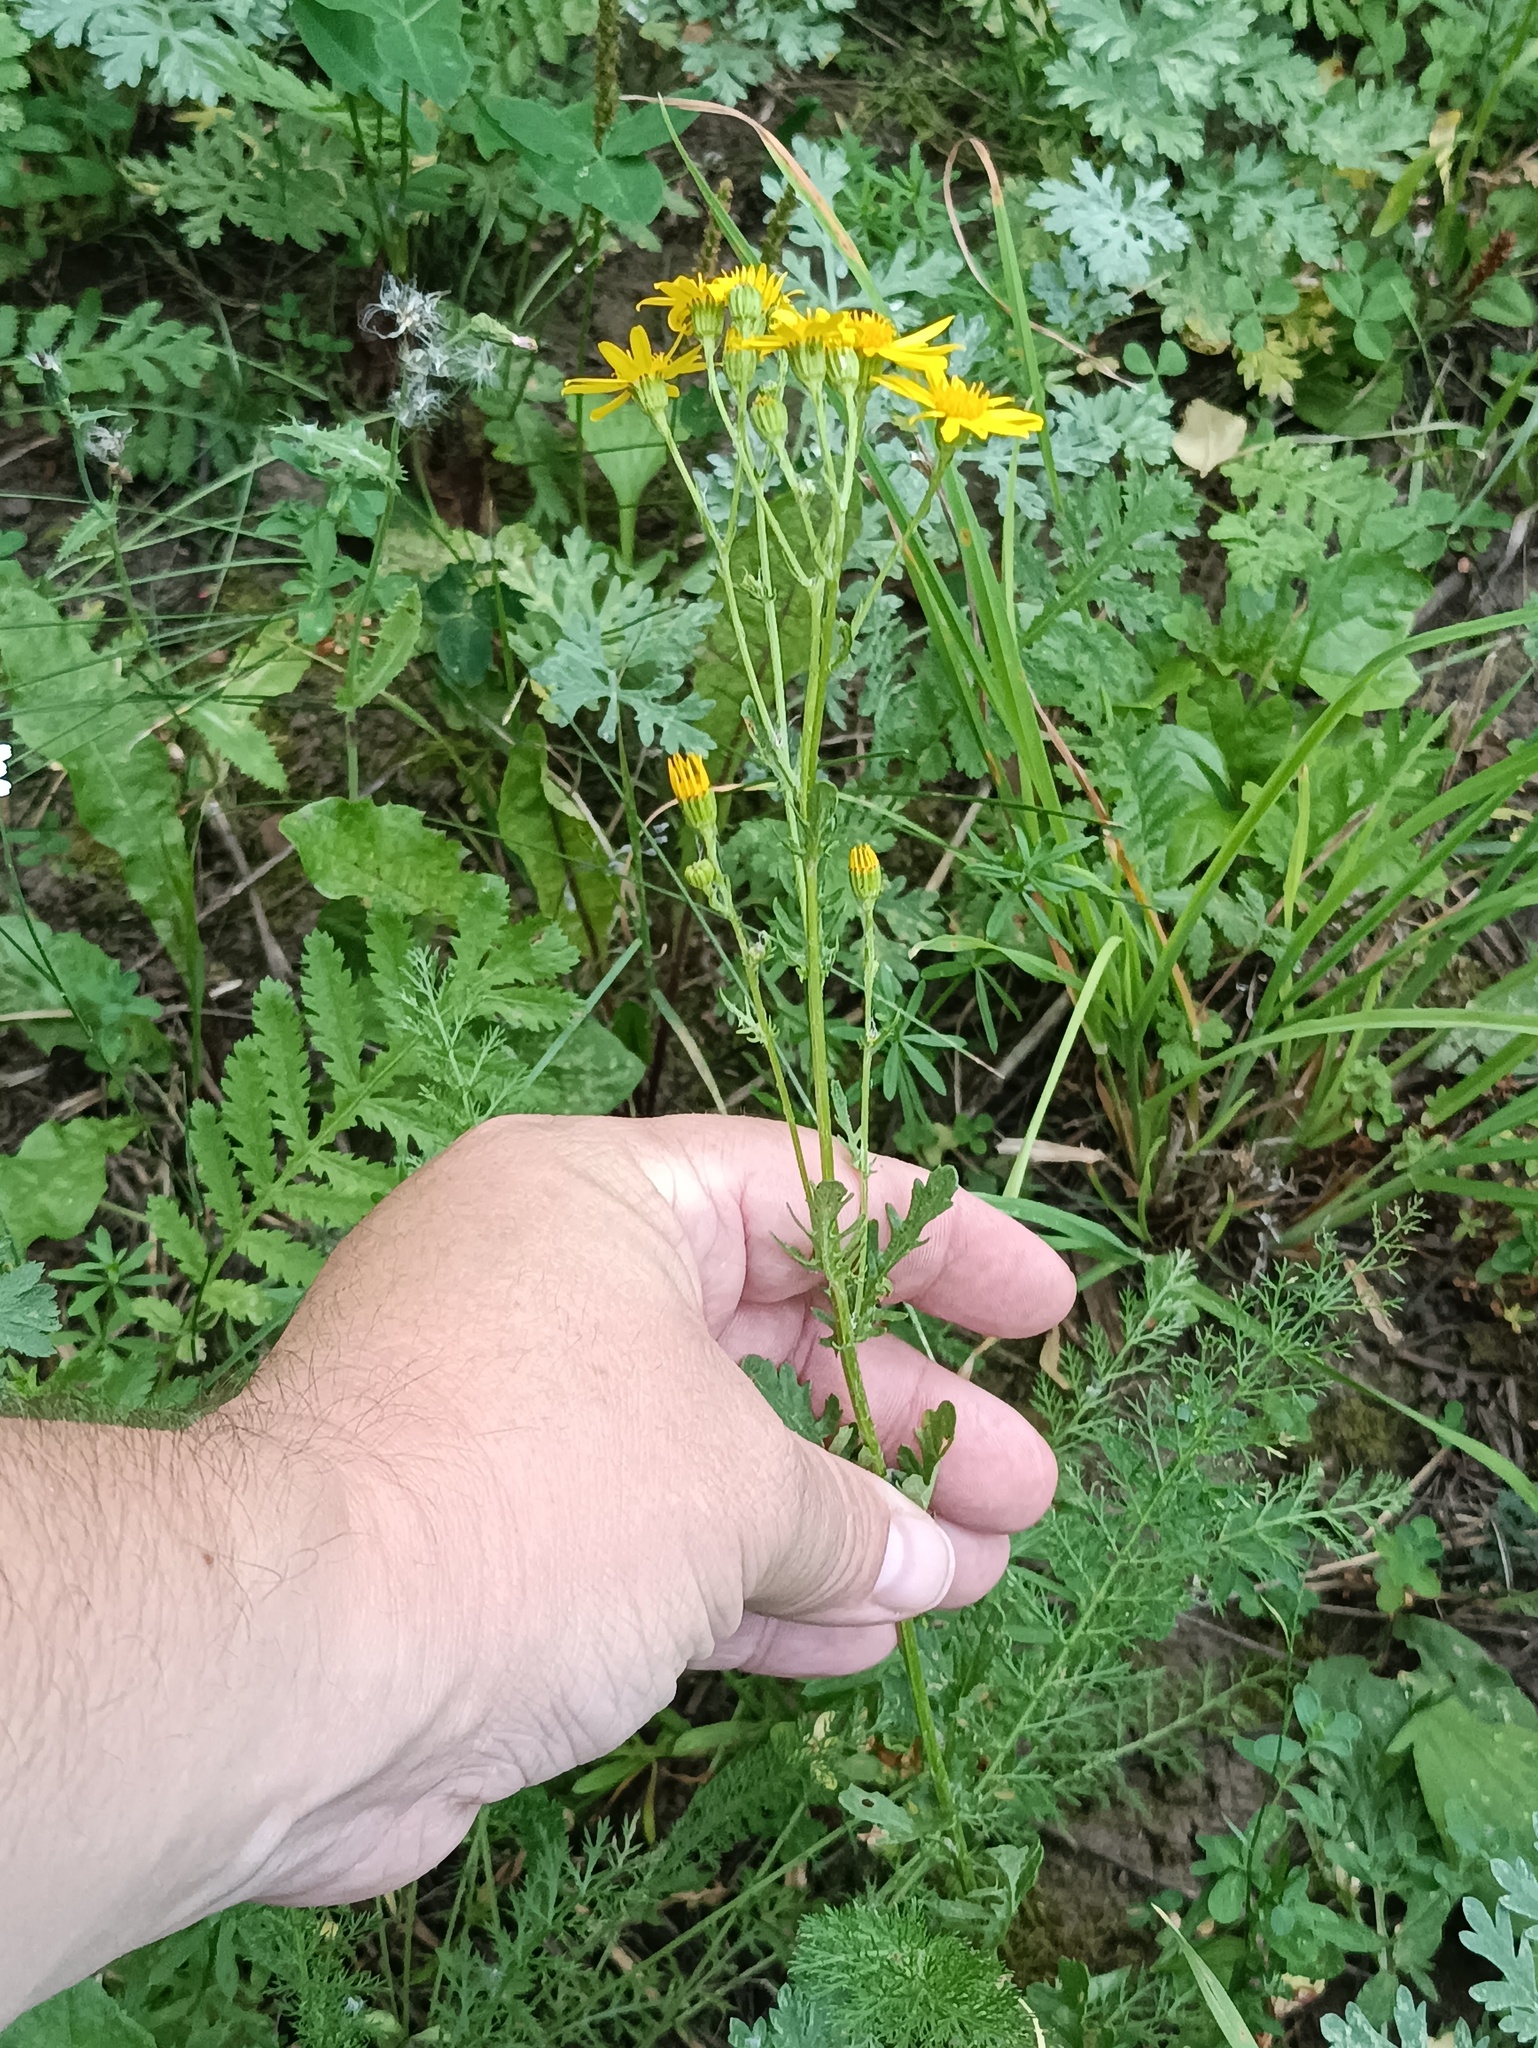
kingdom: Plantae
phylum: Tracheophyta
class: Magnoliopsida
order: Asterales
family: Asteraceae
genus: Jacobaea
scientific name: Jacobaea vulgaris
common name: Stinking willie
